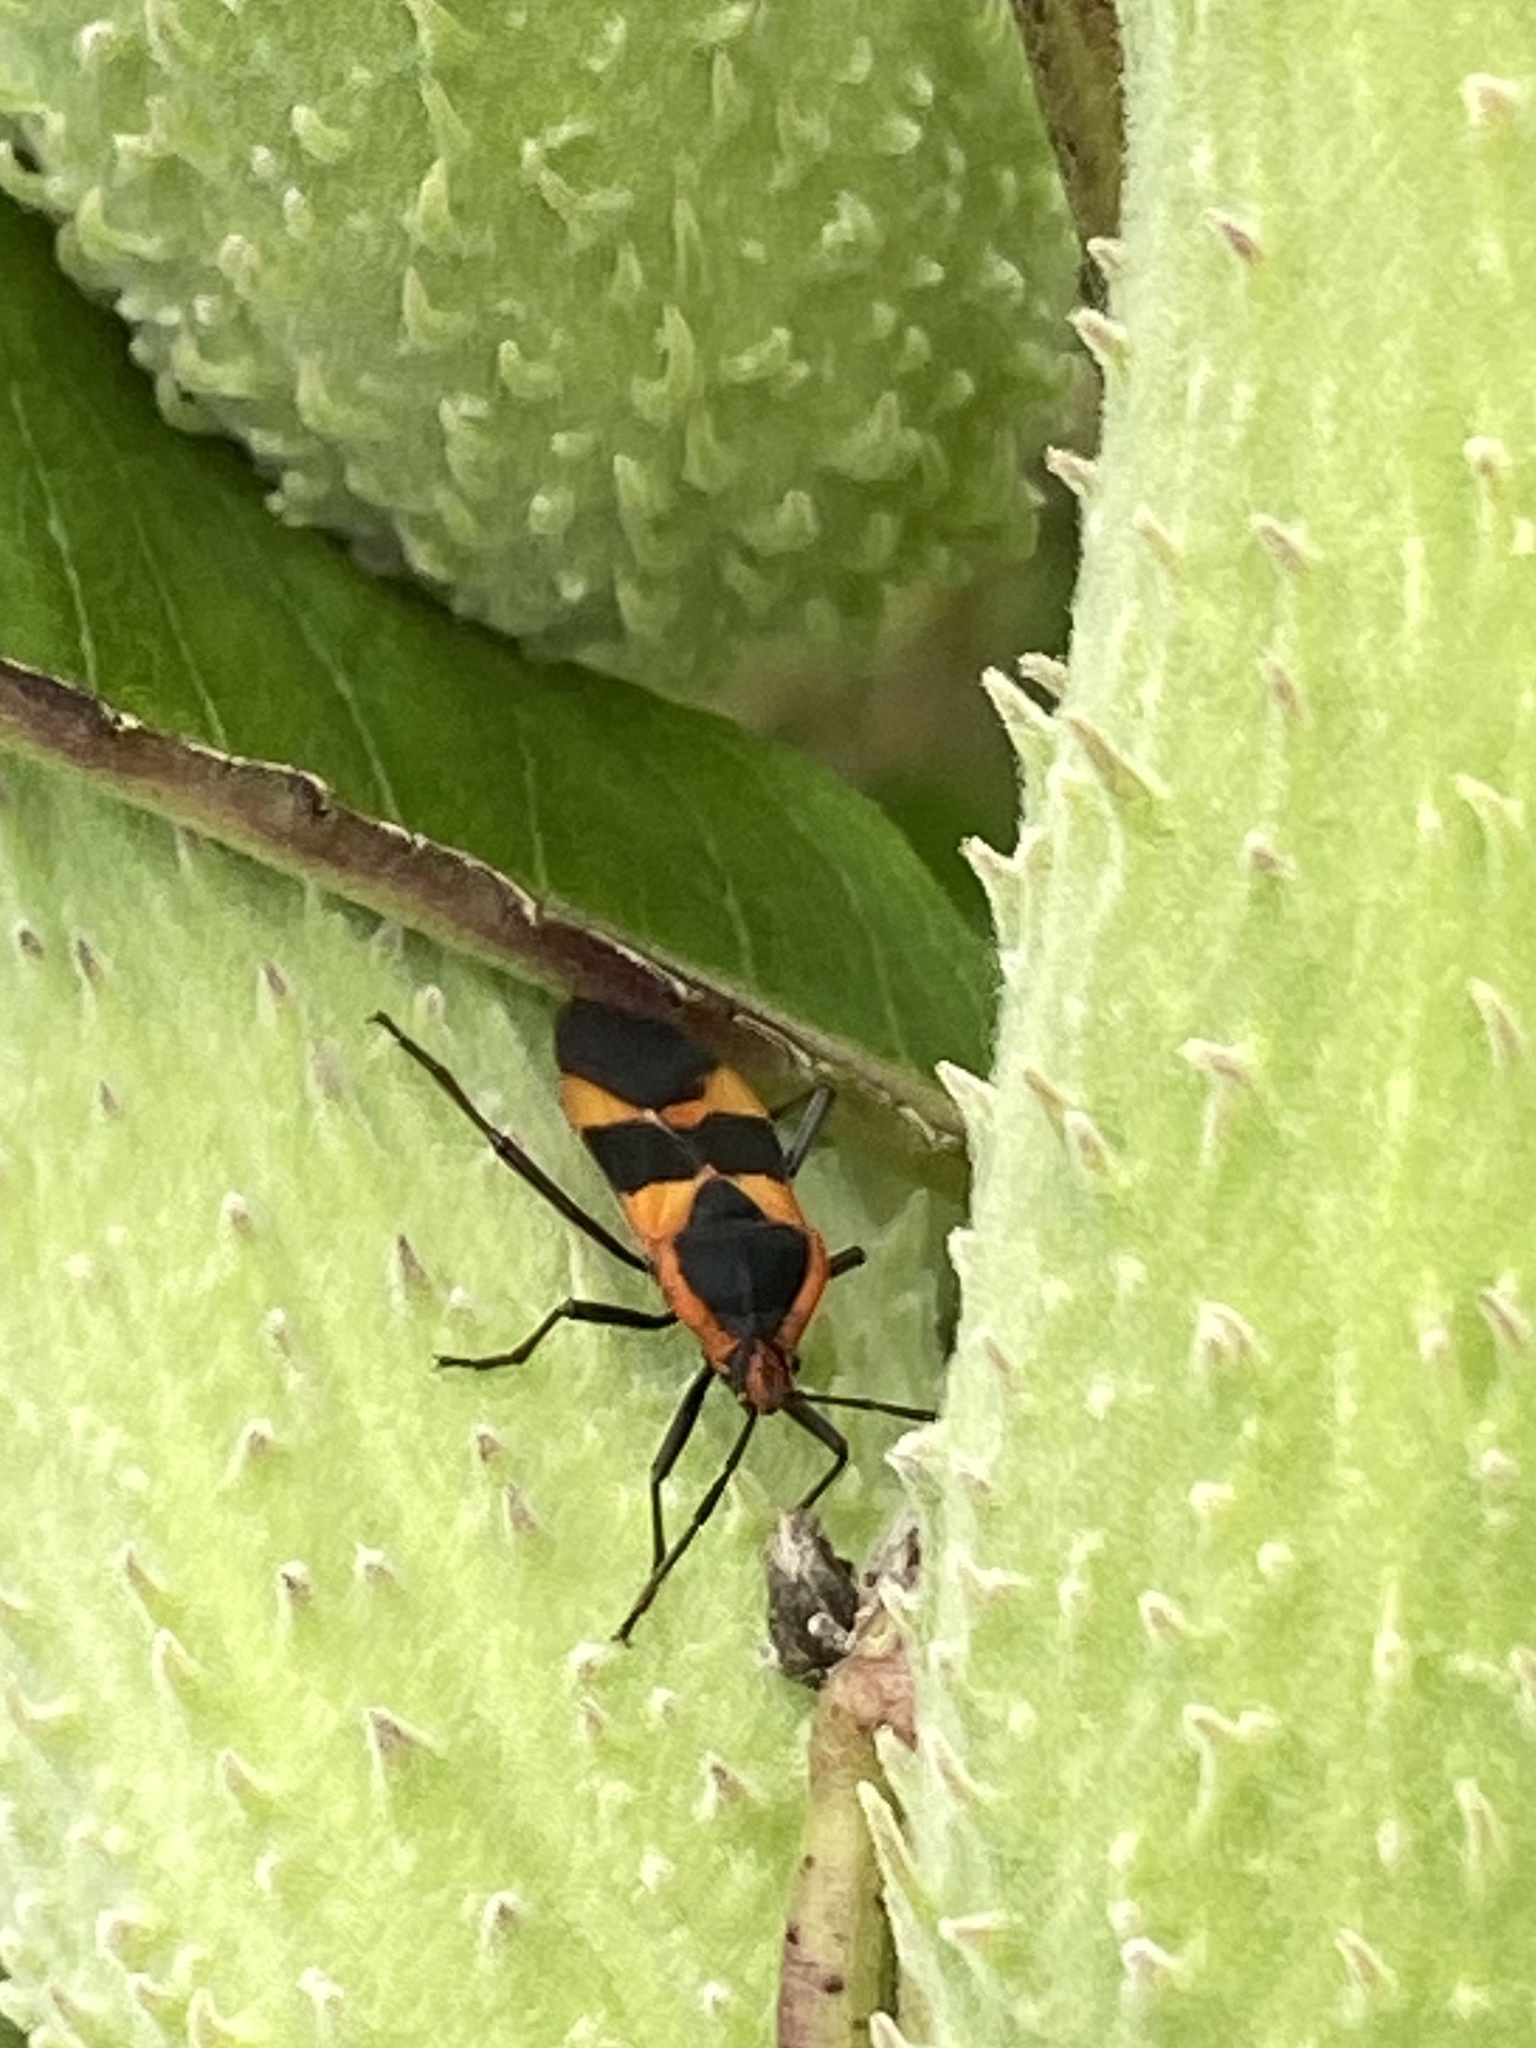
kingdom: Animalia
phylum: Arthropoda
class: Insecta
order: Hemiptera
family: Lygaeidae
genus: Oncopeltus
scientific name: Oncopeltus fasciatus
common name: Large milkweed bug
